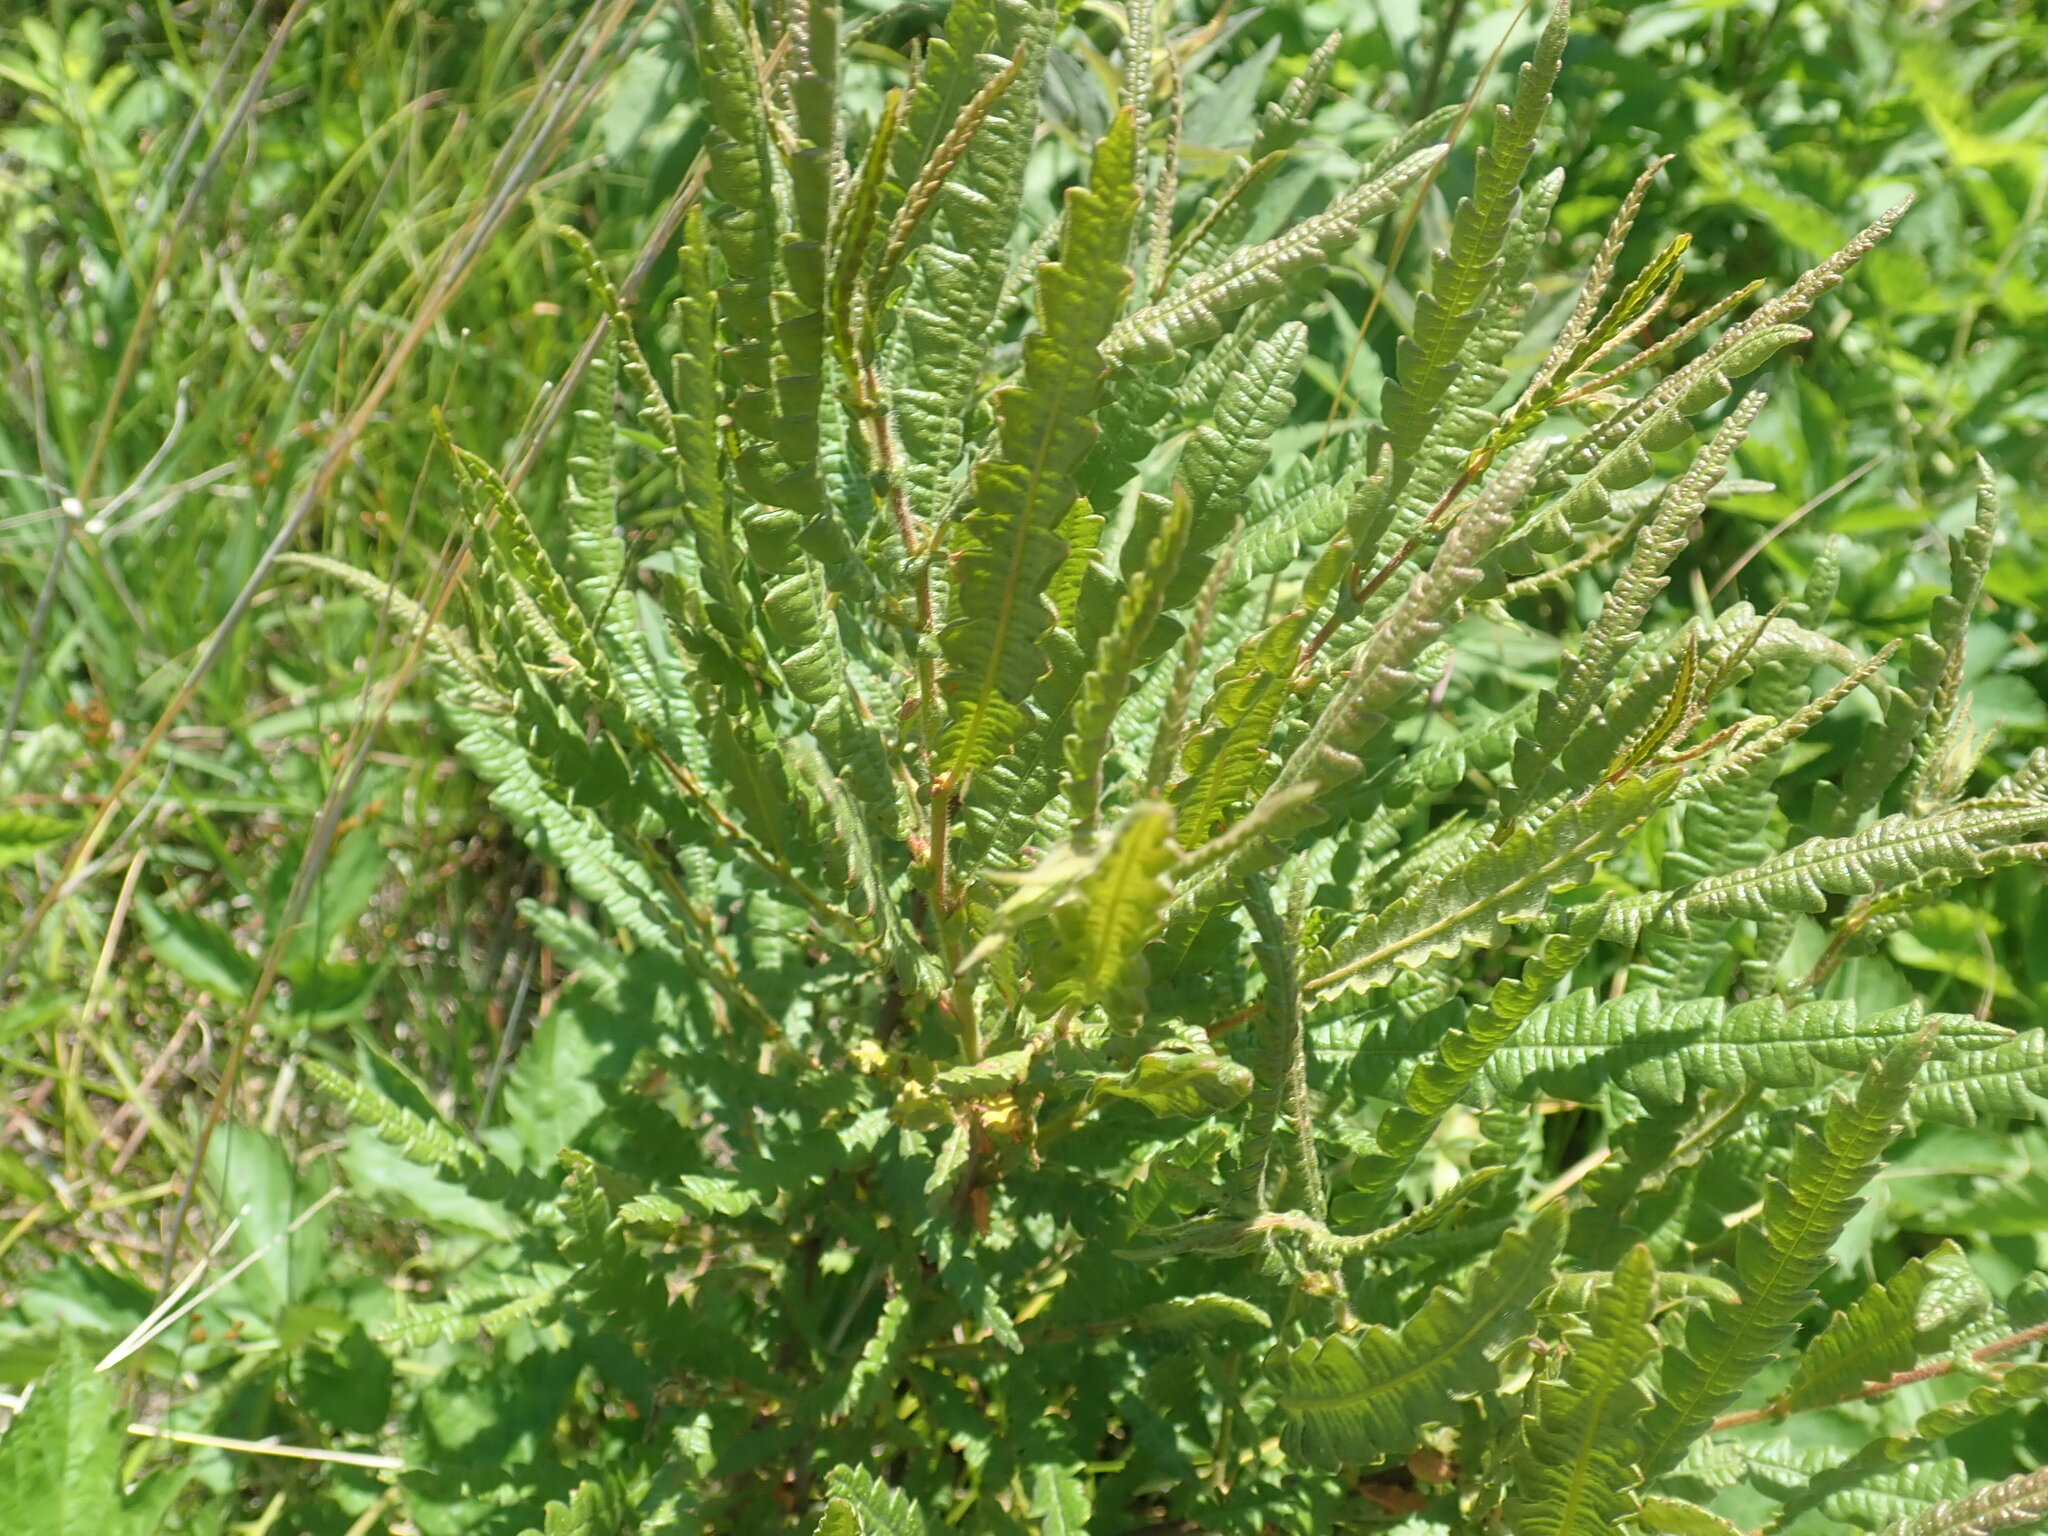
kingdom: Plantae
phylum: Tracheophyta
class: Magnoliopsida
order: Fagales
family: Myricaceae
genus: Comptonia
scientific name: Comptonia peregrina
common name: Sweet-fern
